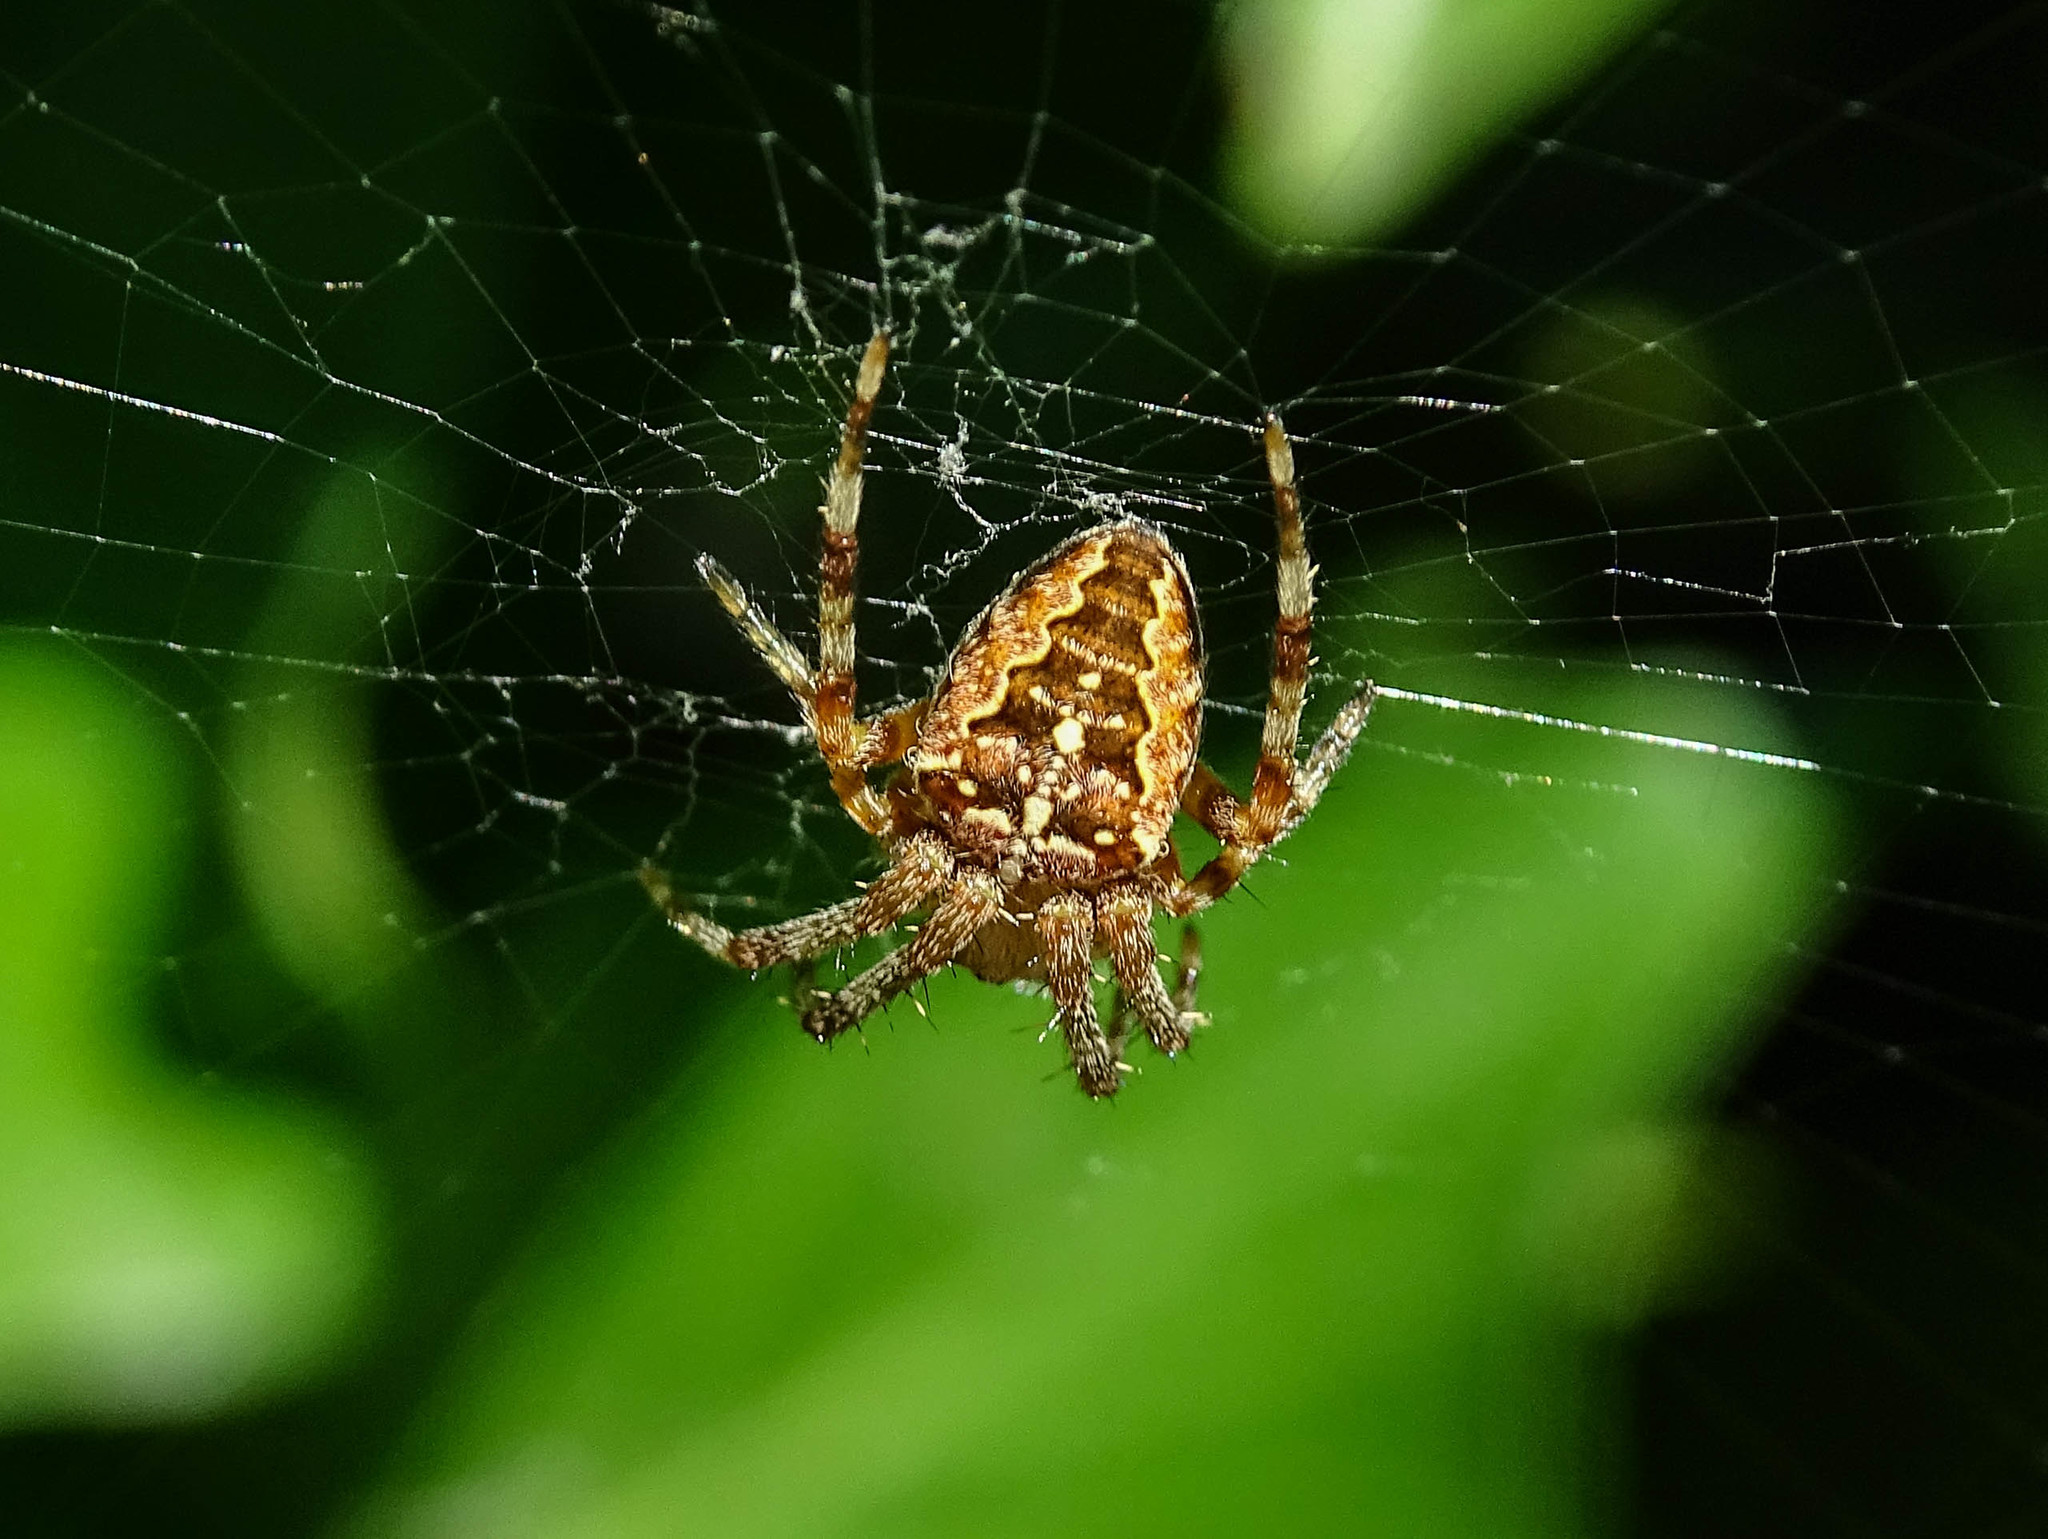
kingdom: Animalia
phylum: Arthropoda
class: Arachnida
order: Araneae
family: Araneidae
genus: Araneus
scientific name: Araneus diadematus
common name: Cross orbweaver
